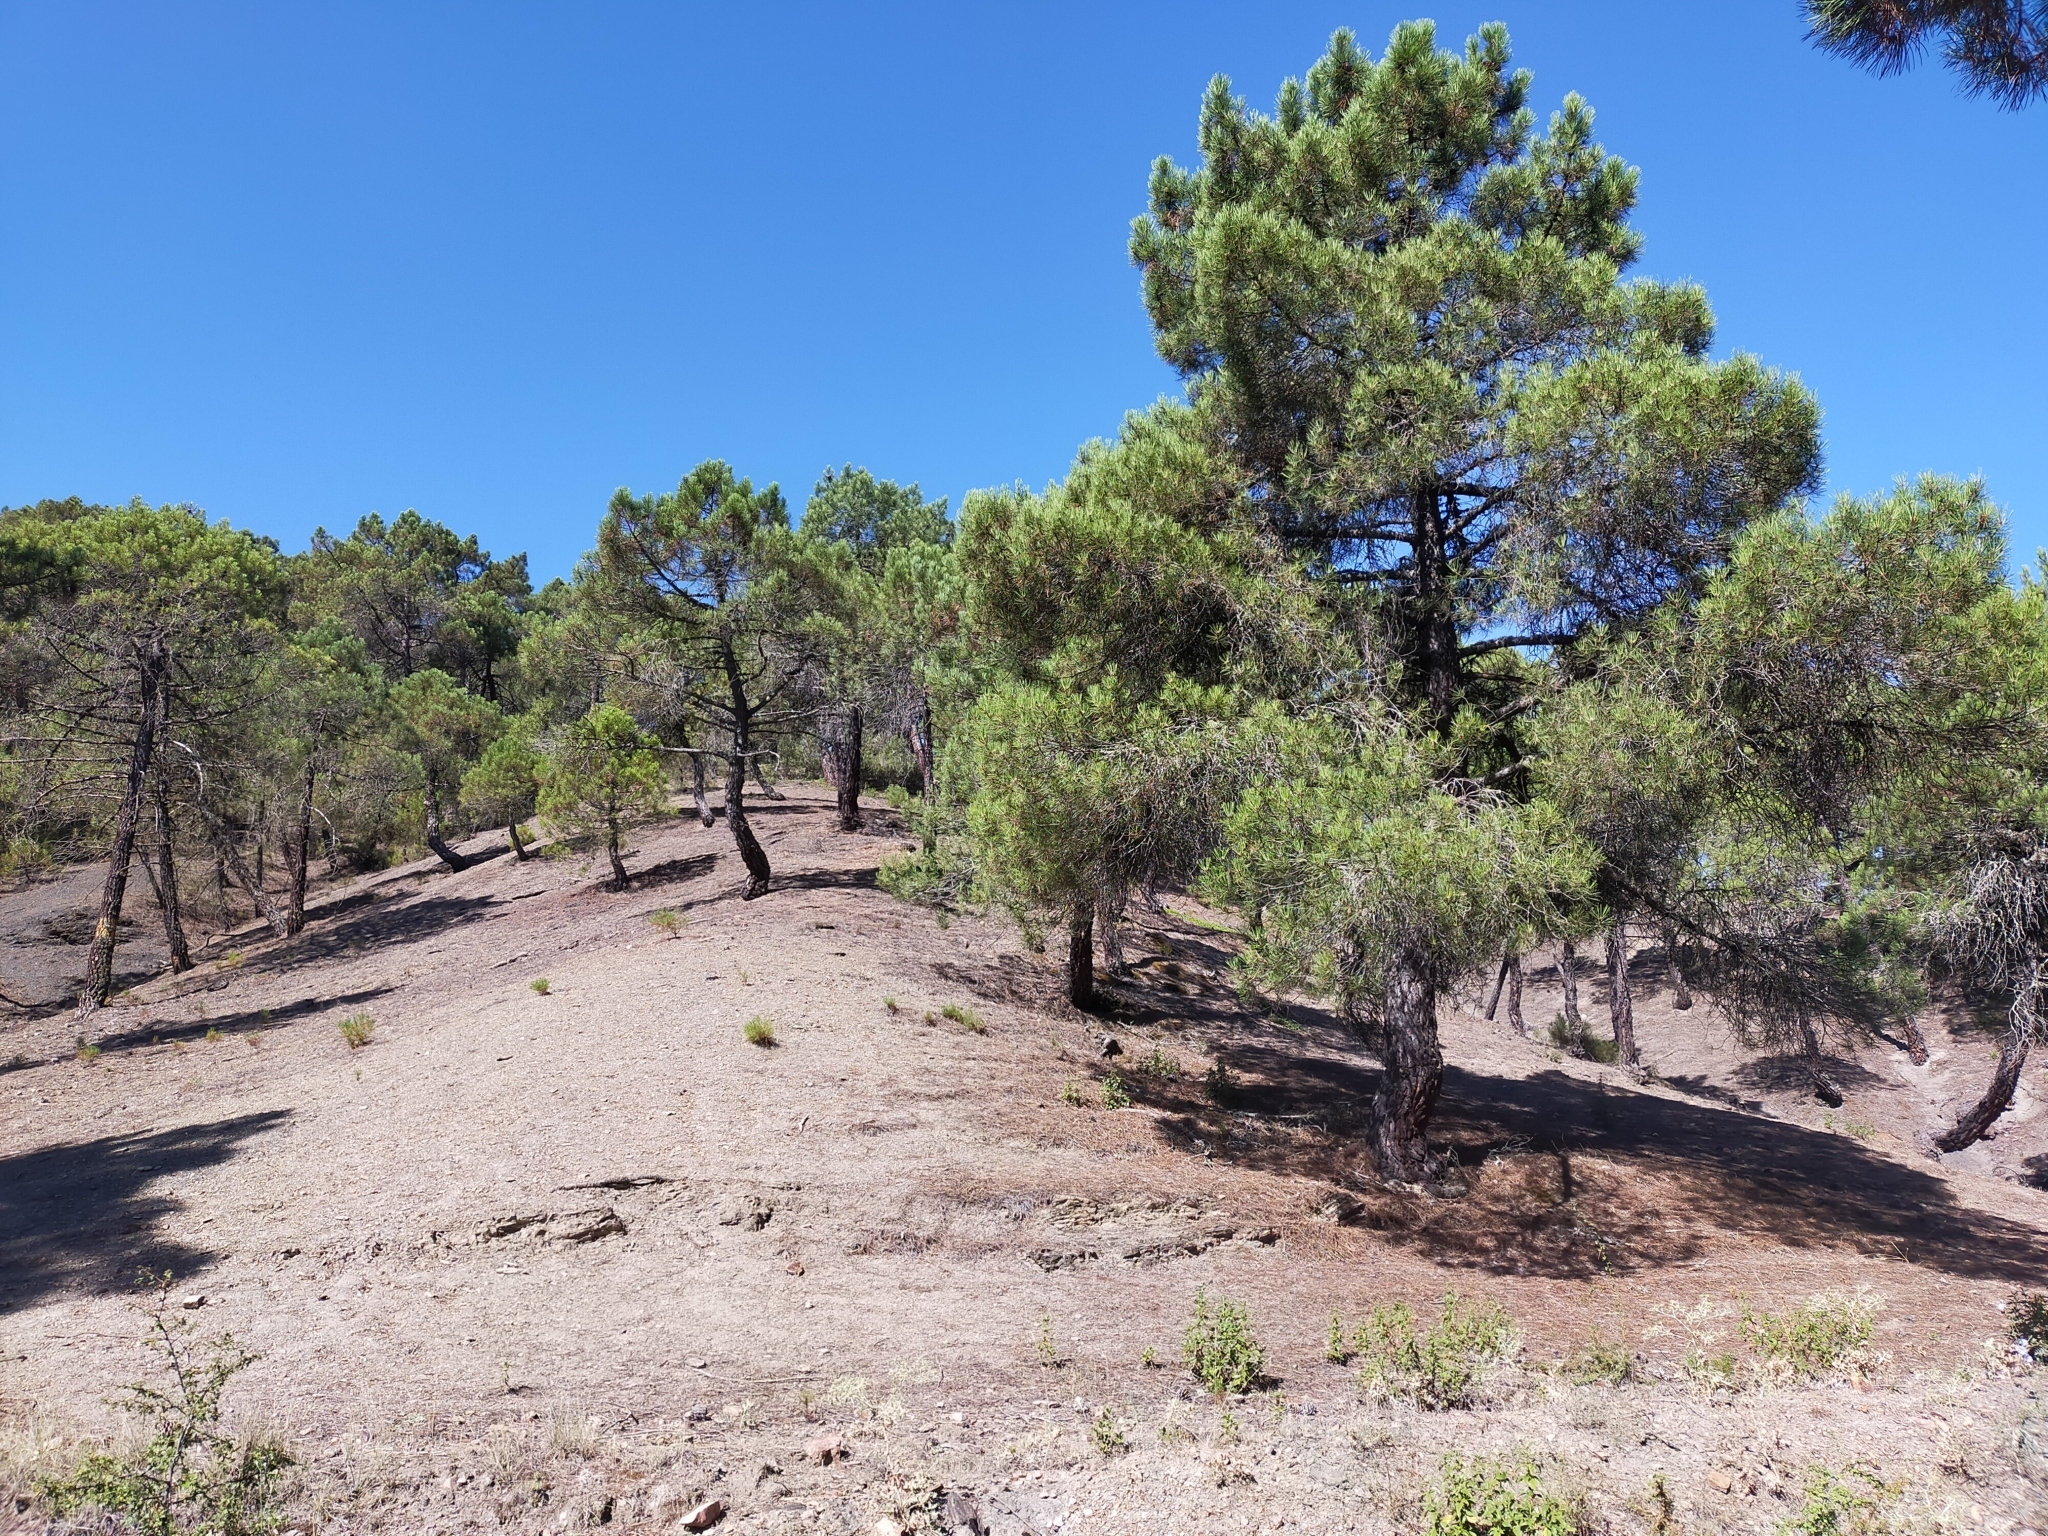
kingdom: Plantae
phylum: Tracheophyta
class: Pinopsida
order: Pinales
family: Pinaceae
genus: Pinus
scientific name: Pinus pinaster
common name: Maritime pine
